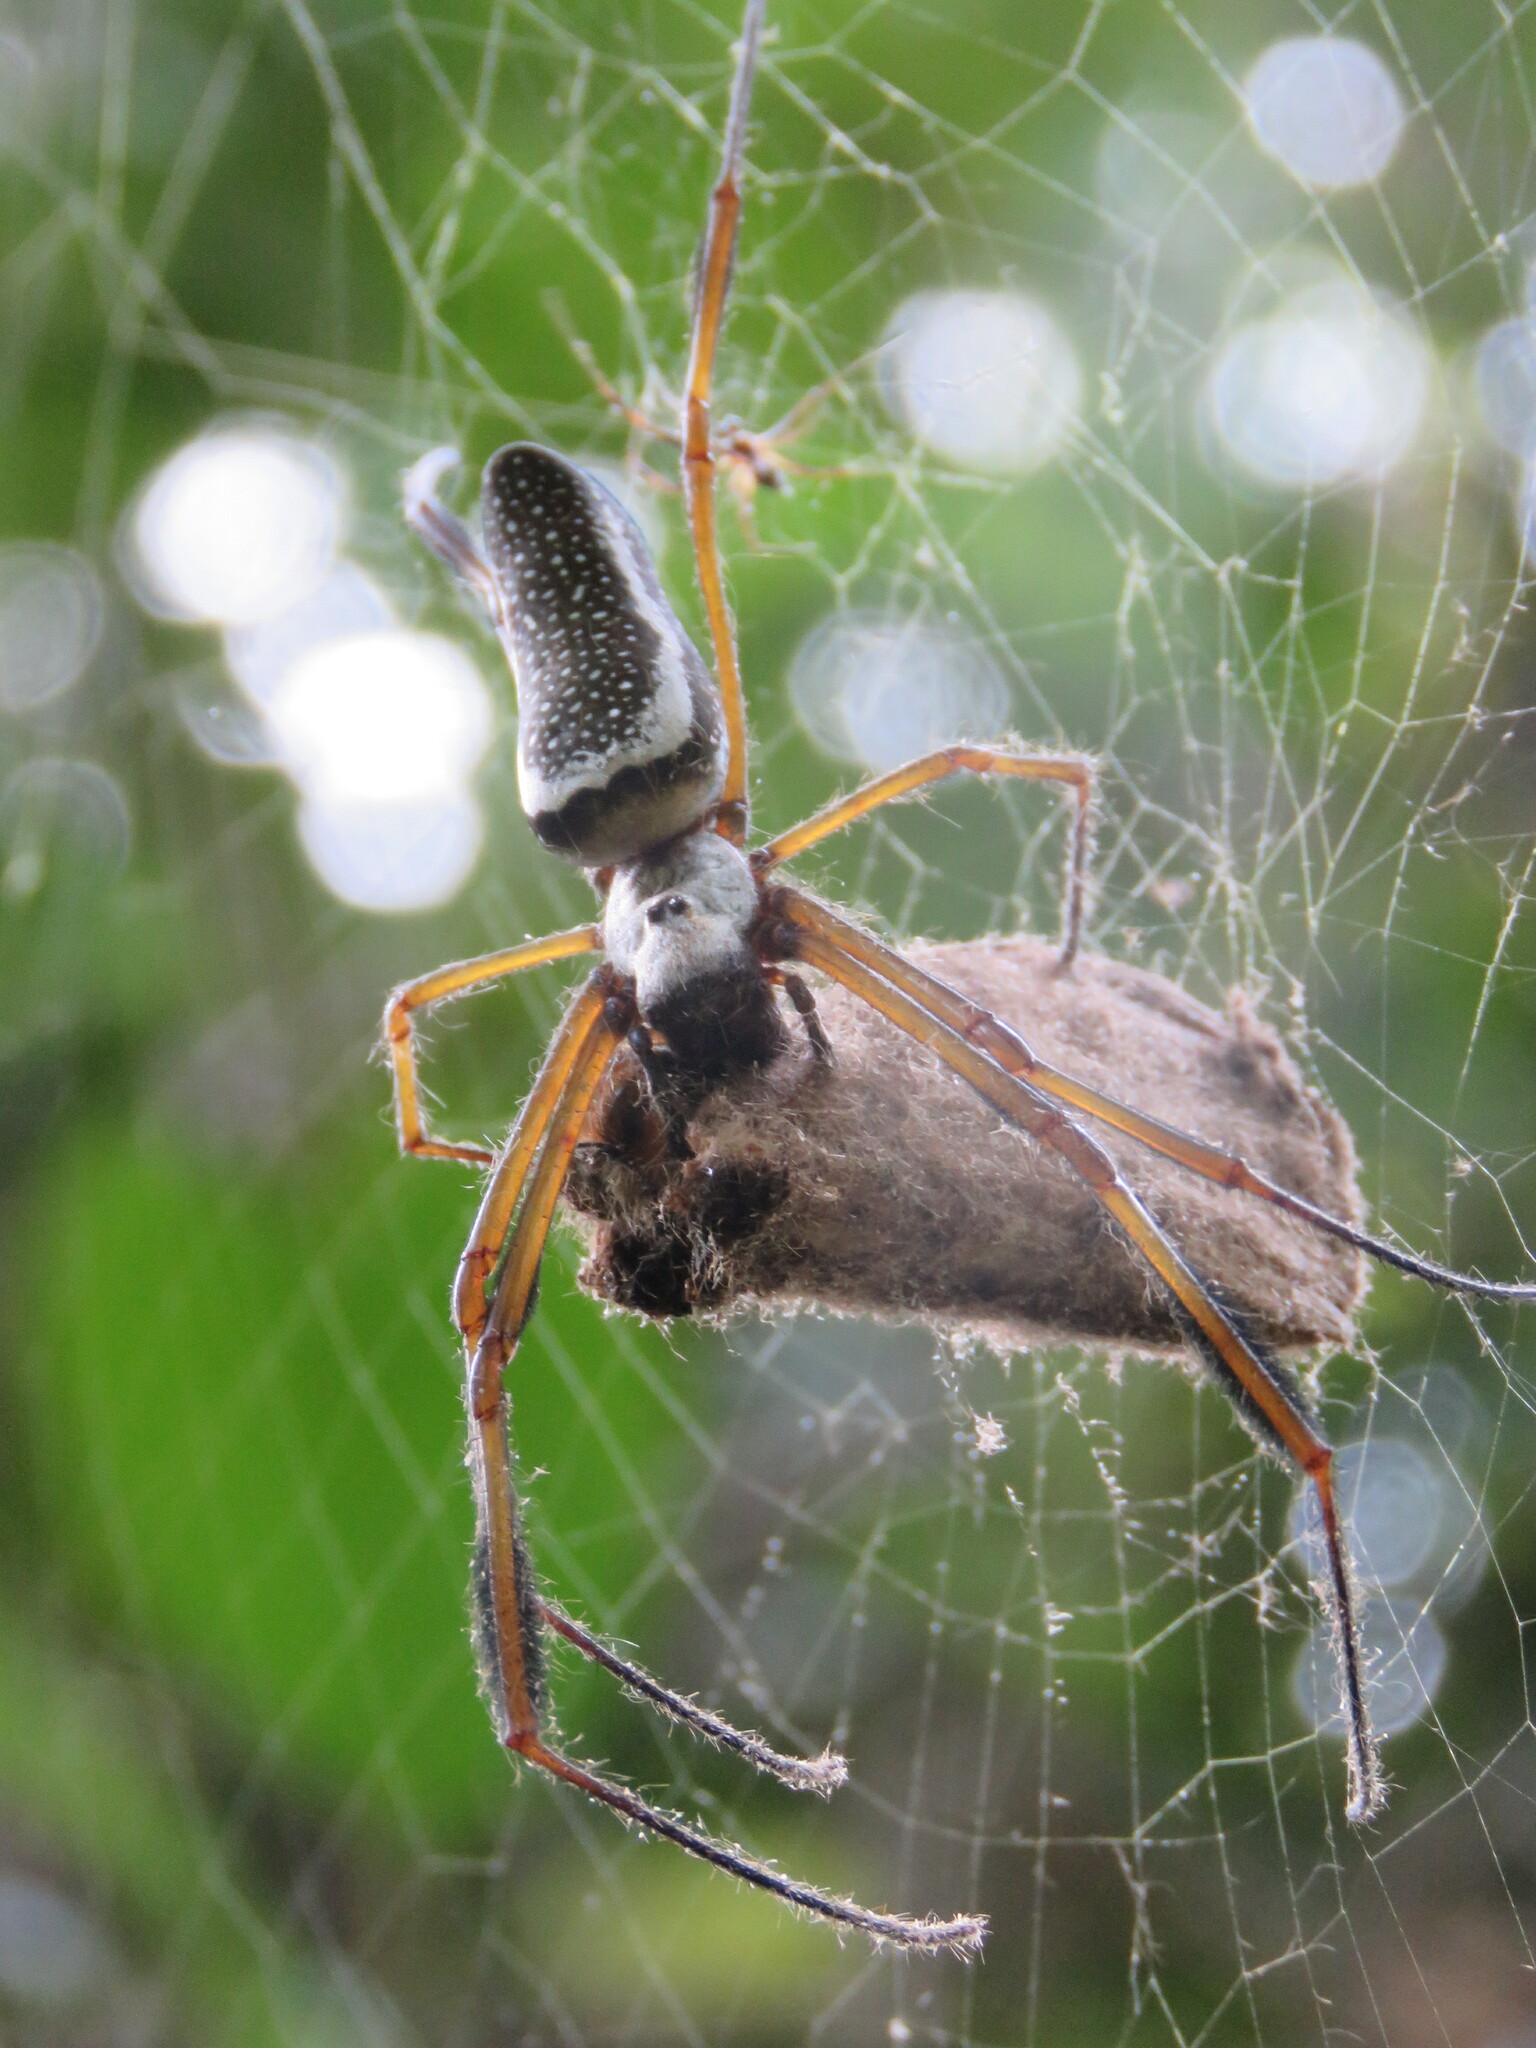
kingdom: Animalia
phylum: Arthropoda
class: Arachnida
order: Araneae
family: Araneidae
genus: Trichonephila
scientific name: Trichonephila clavipes
